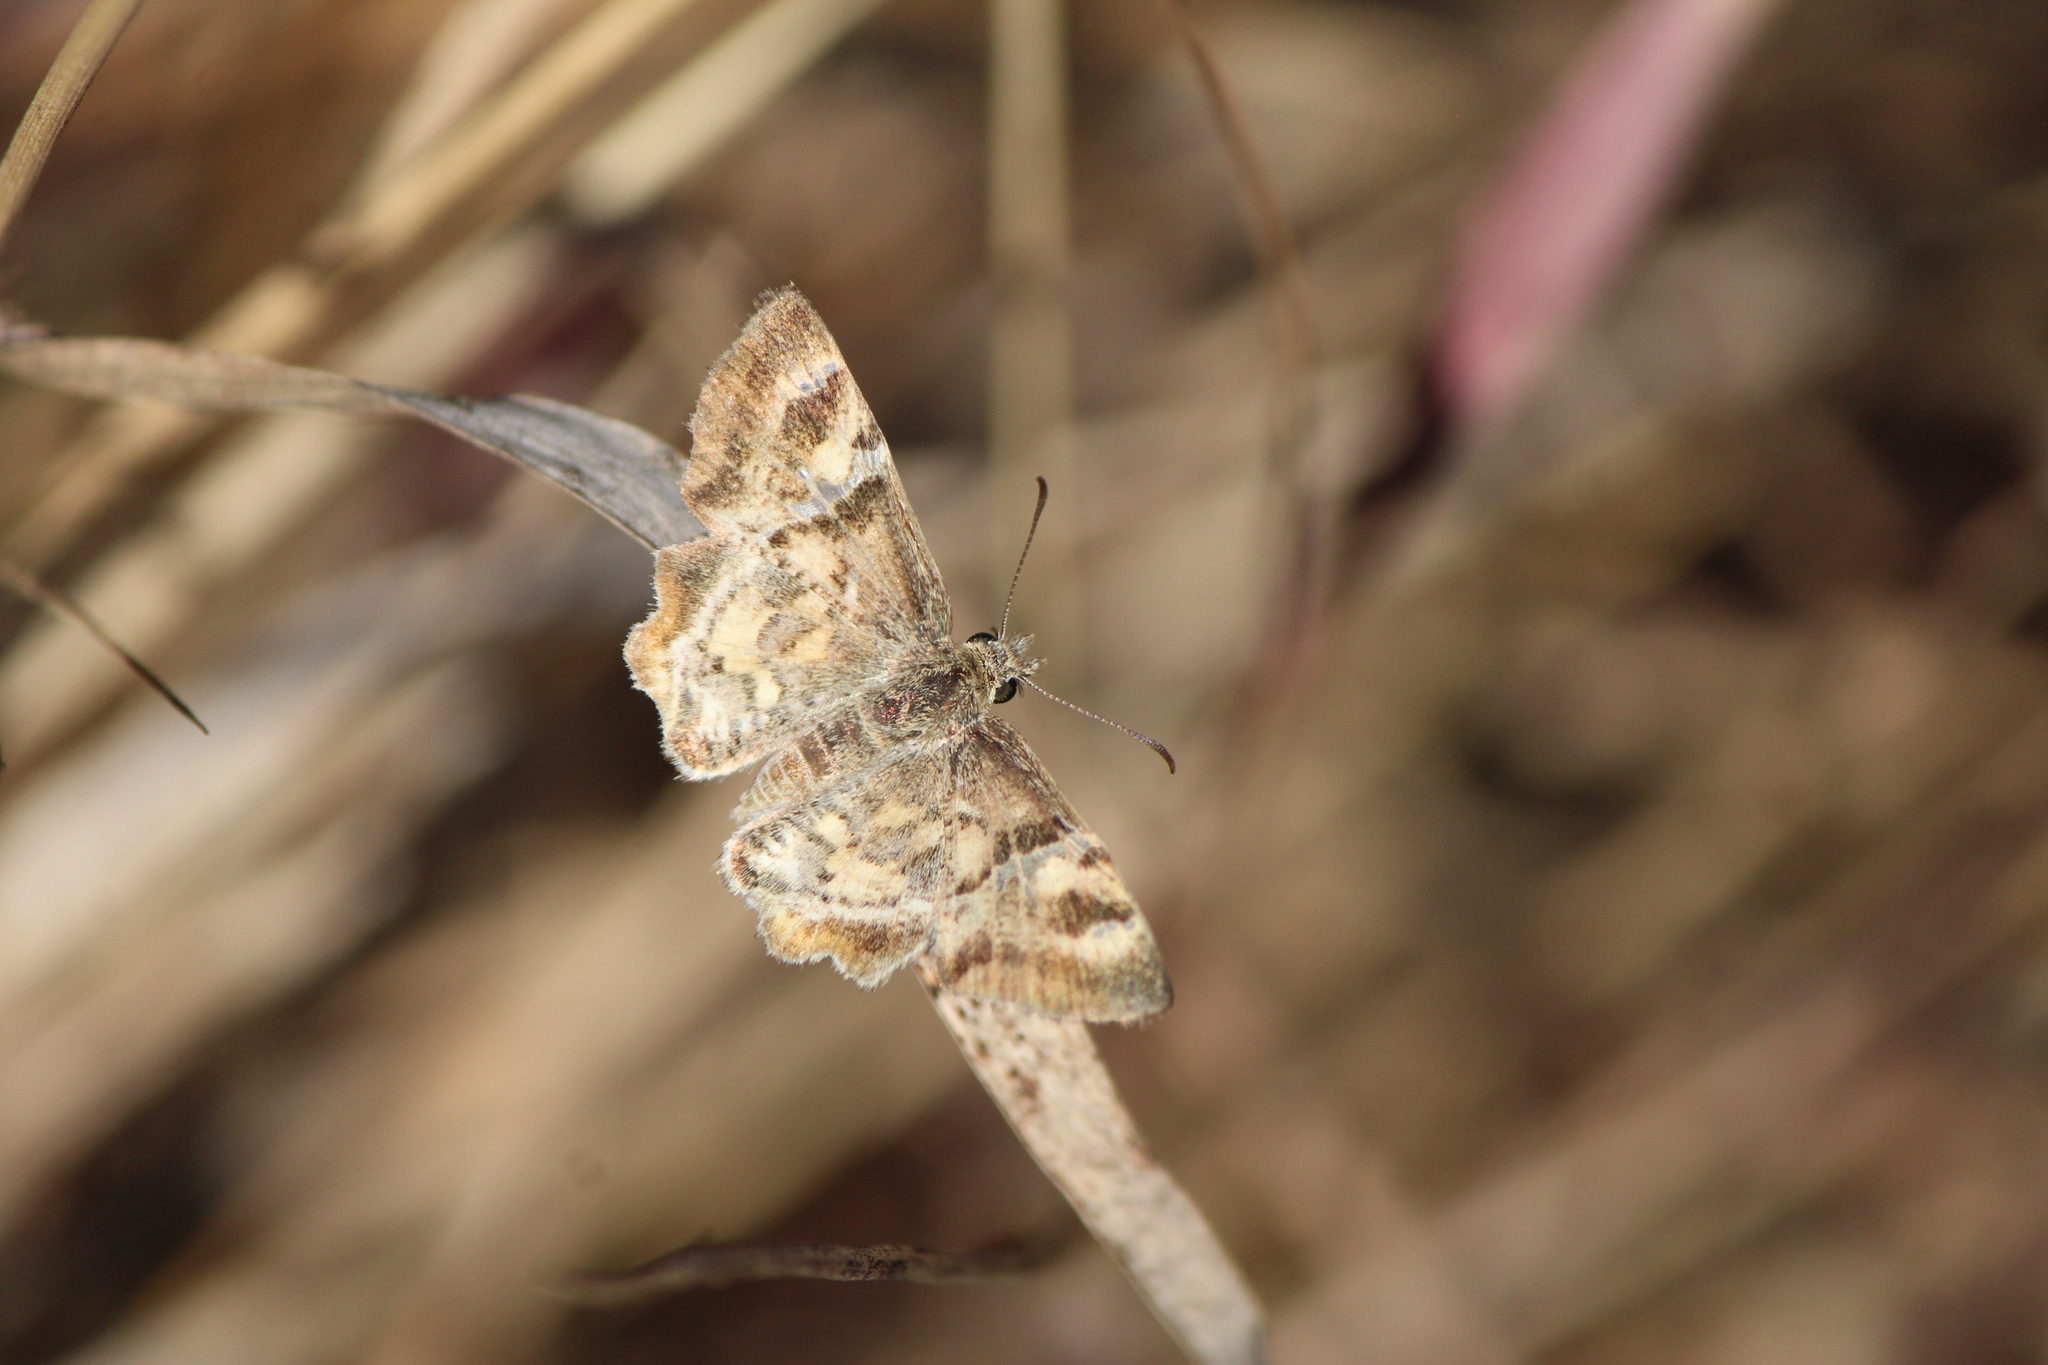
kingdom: Animalia
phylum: Arthropoda
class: Insecta
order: Lepidoptera
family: Hesperiidae
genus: Systasea
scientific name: Systasea pulverulenta
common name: Texas powdered skipper
